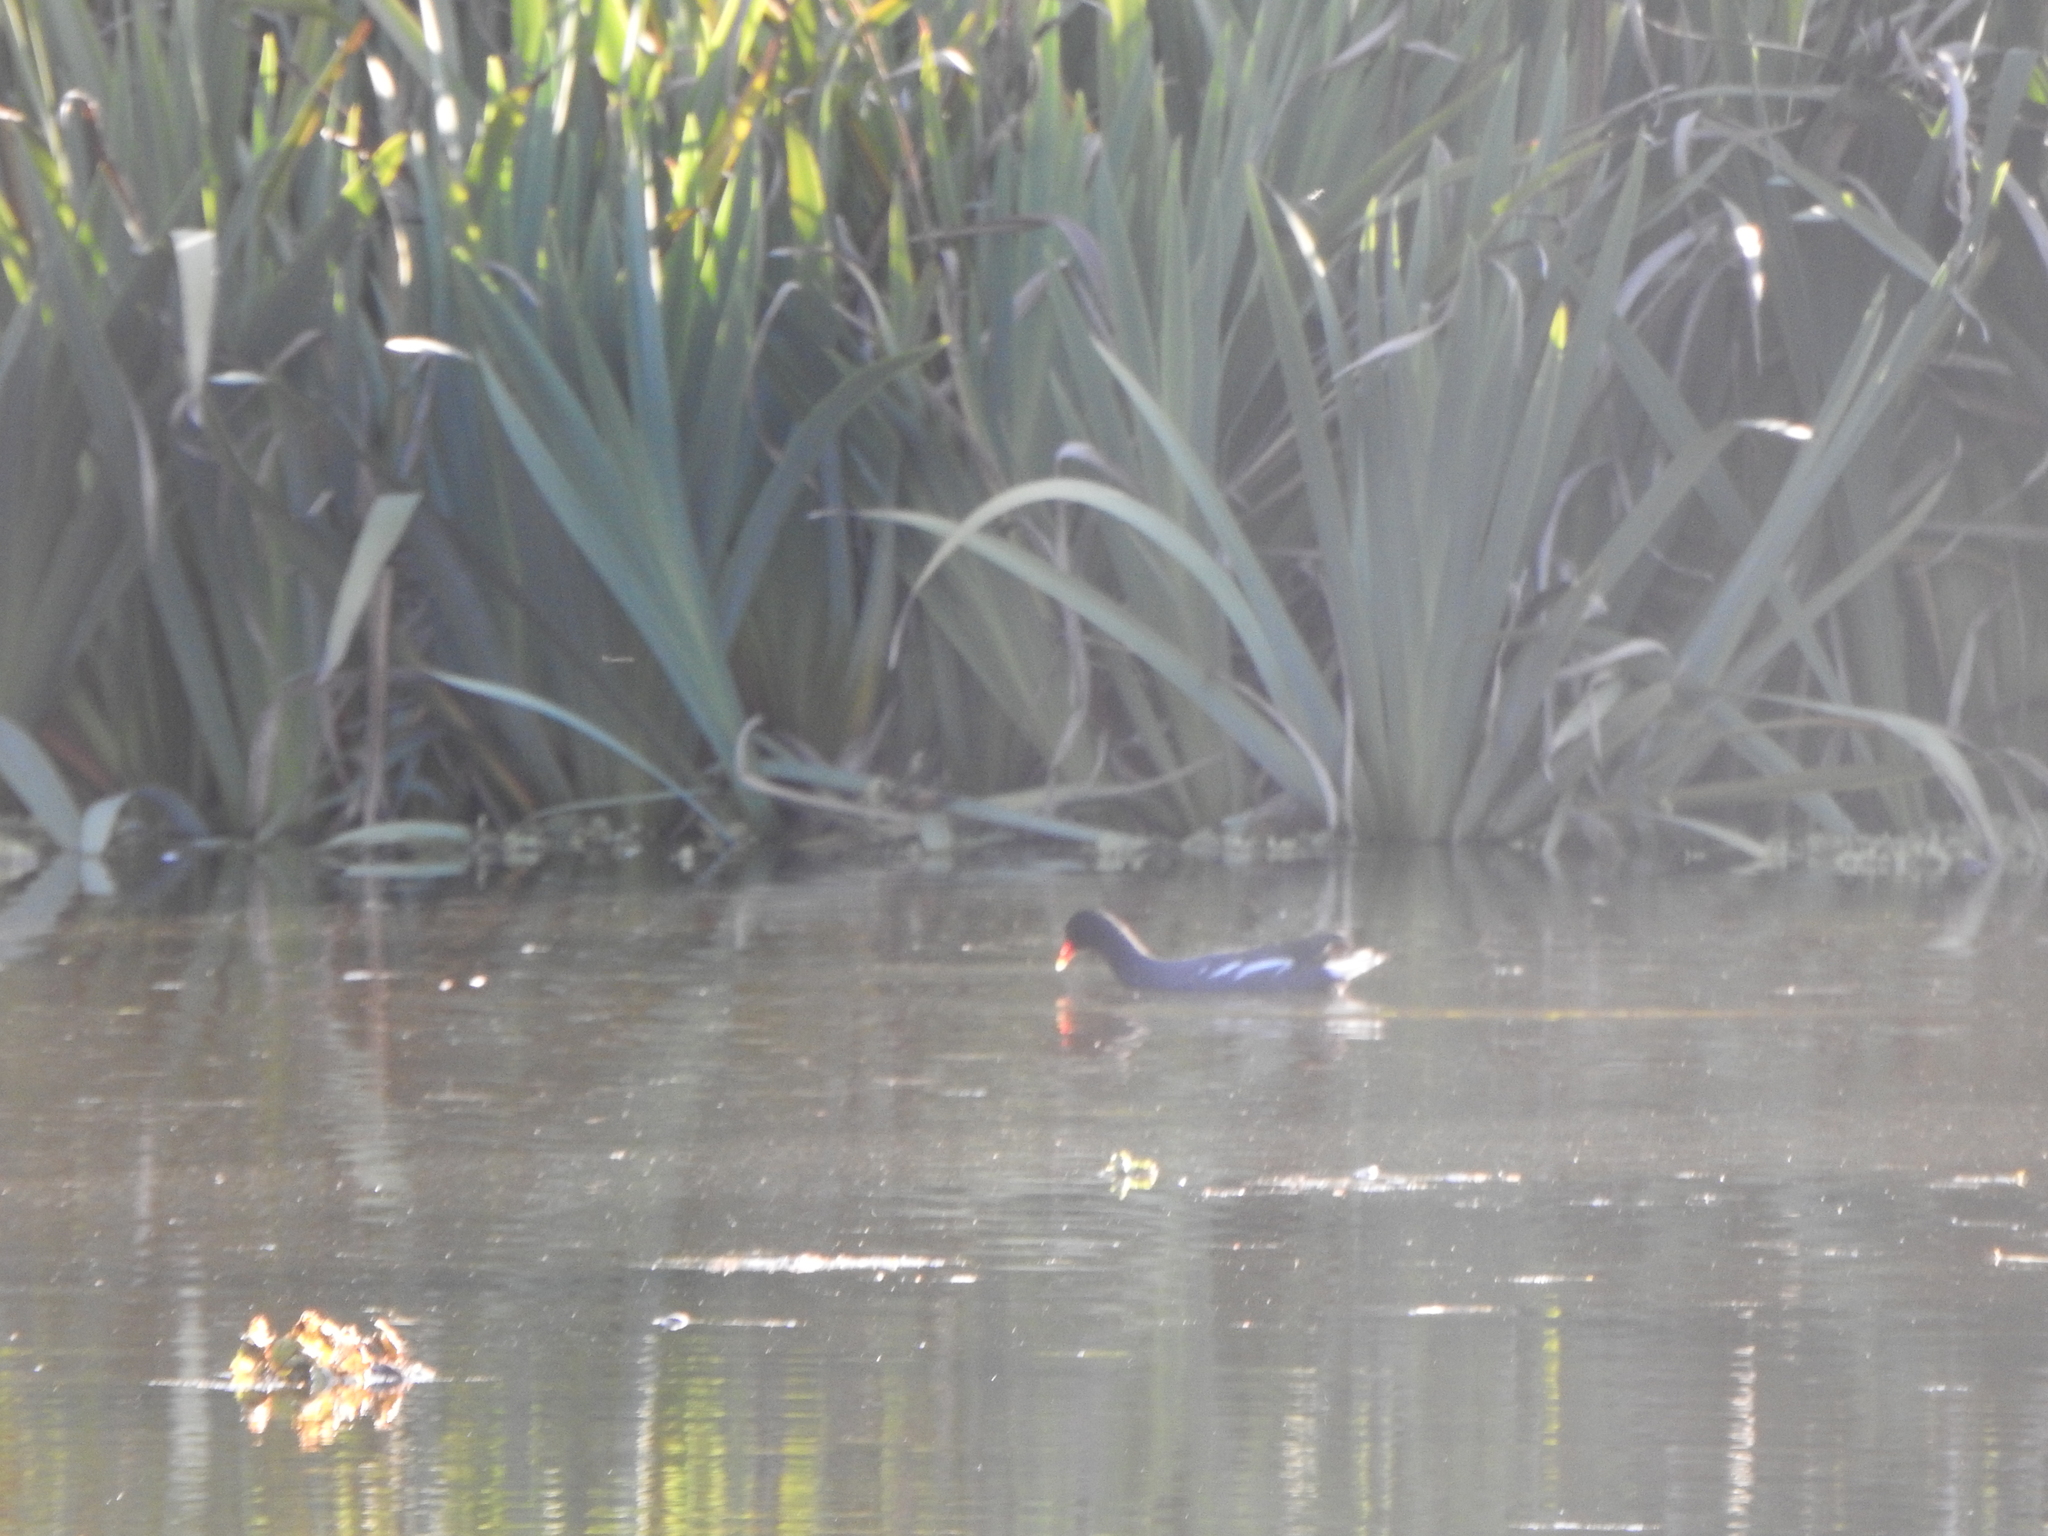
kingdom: Animalia
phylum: Chordata
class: Aves
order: Gruiformes
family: Rallidae
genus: Gallinula
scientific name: Gallinula chloropus
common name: Common moorhen
